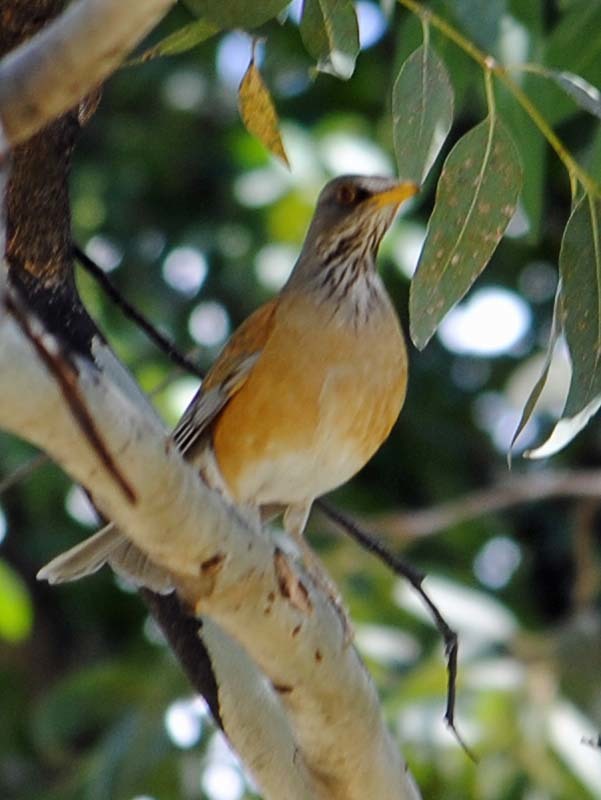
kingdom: Animalia
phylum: Chordata
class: Aves
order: Passeriformes
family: Turdidae
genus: Turdus
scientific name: Turdus rufopalliatus
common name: Rufous-backed robin
